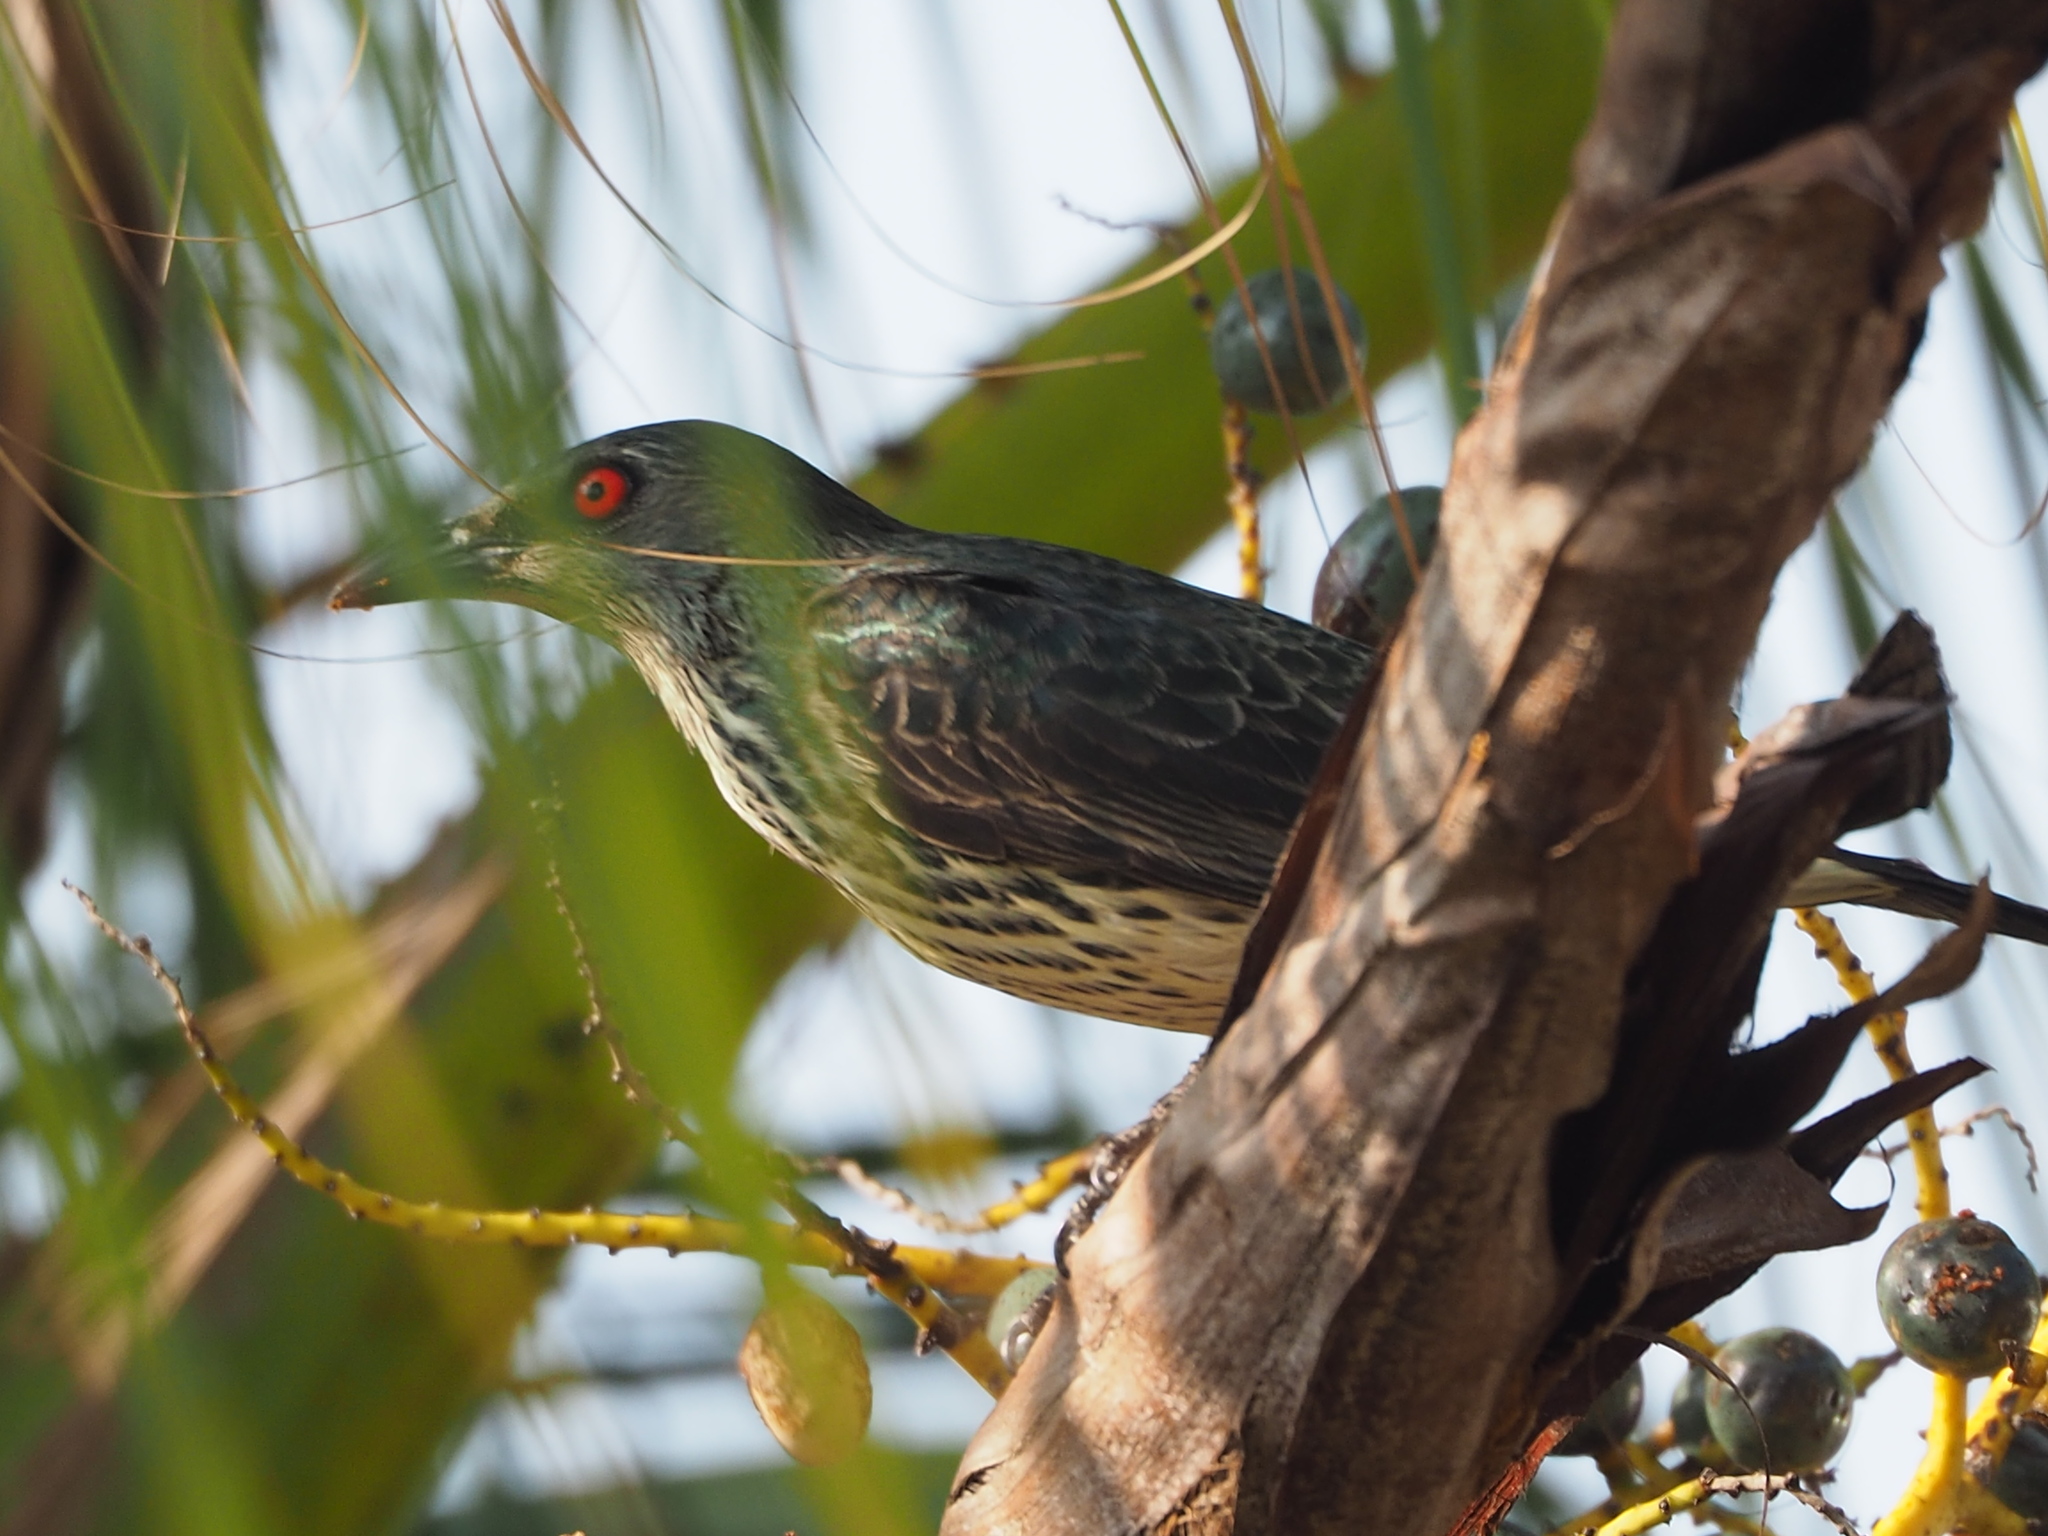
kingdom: Animalia
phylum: Chordata
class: Aves
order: Passeriformes
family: Sturnidae
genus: Aplonis
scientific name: Aplonis panayensis
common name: Asian glossy starling
